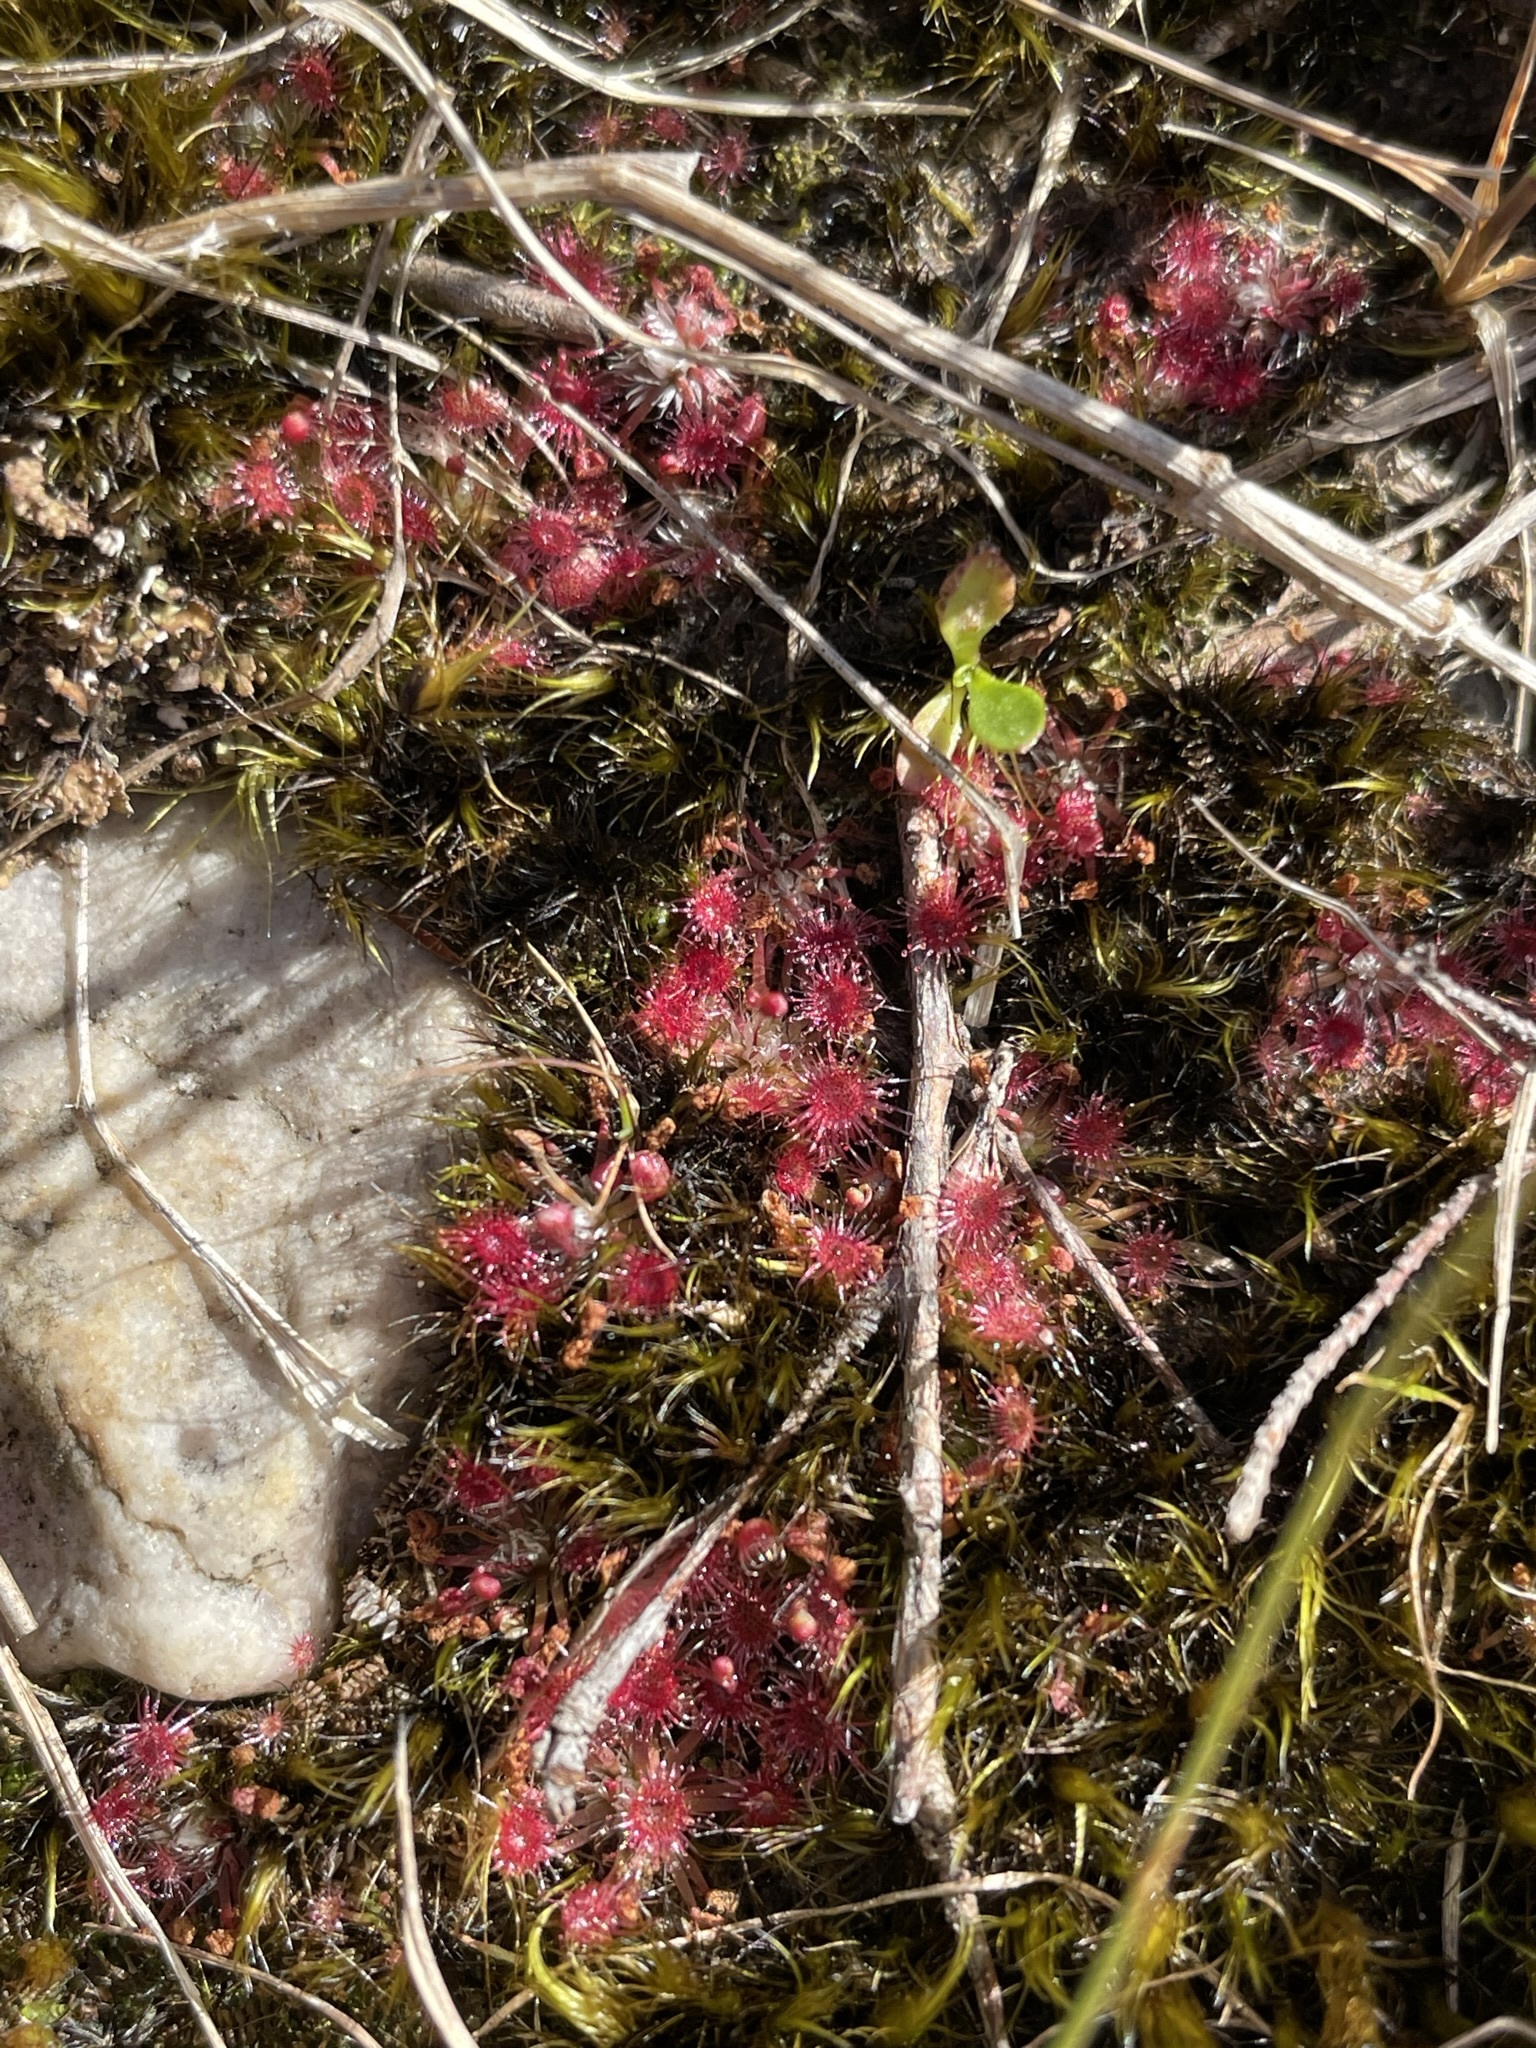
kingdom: Plantae
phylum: Tracheophyta
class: Magnoliopsida
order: Caryophyllales
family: Droseraceae
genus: Drosera
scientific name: Drosera pygmaea
